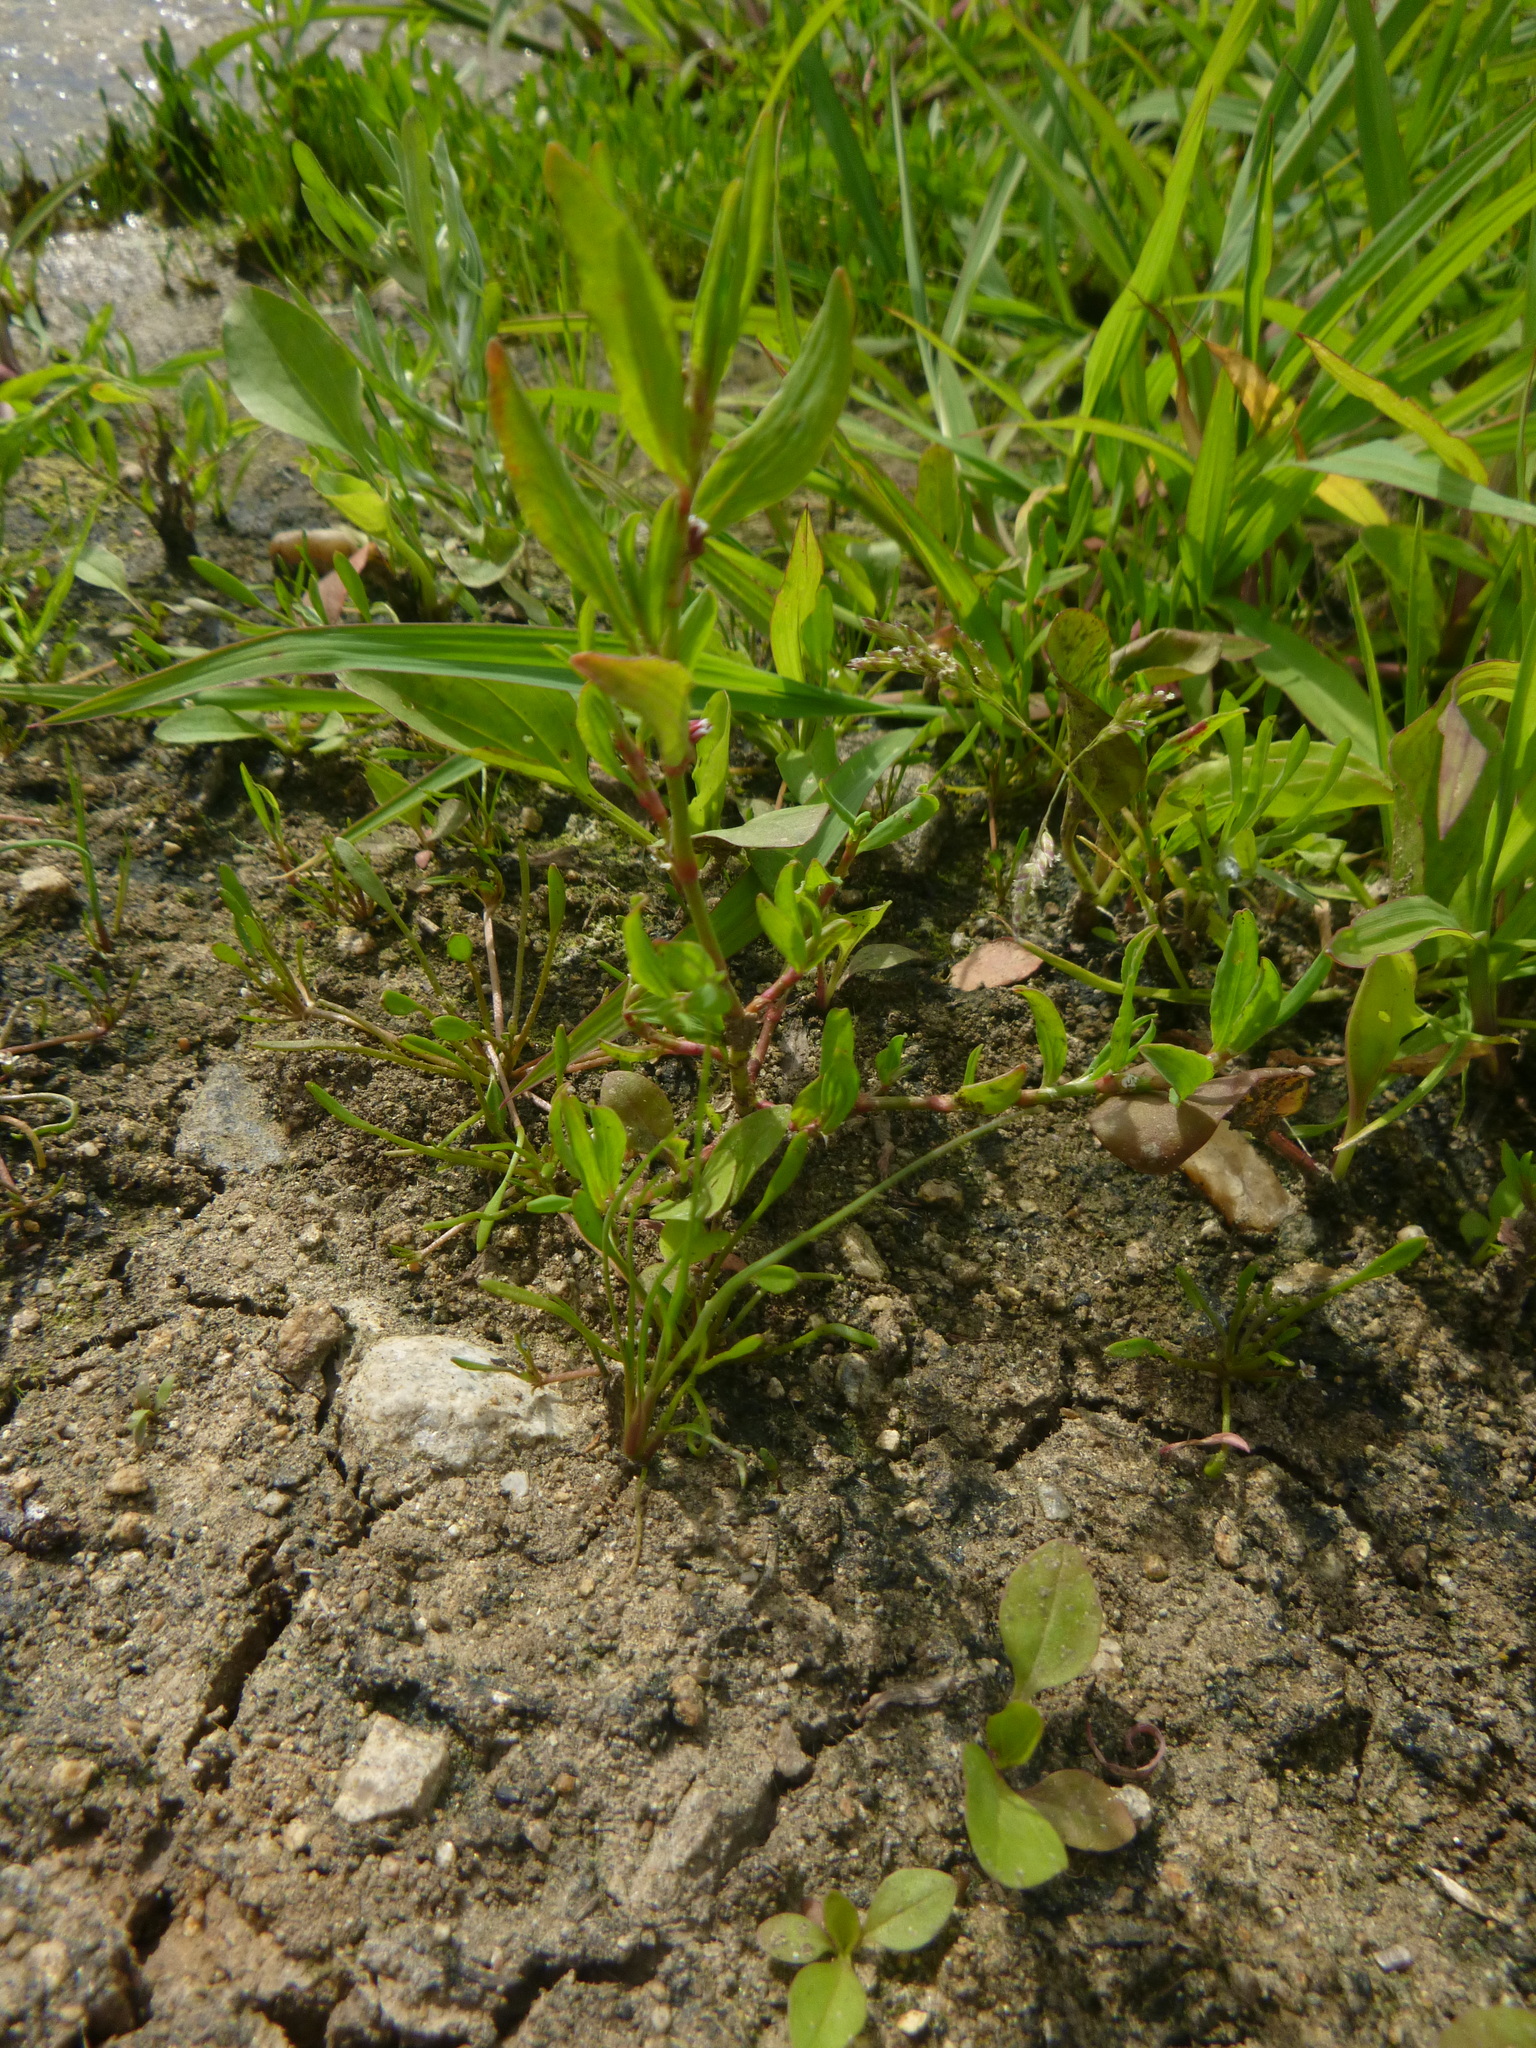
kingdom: Plantae
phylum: Tracheophyta
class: Magnoliopsida
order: Caryophyllales
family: Polygonaceae
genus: Polygonum
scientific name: Polygonum aviculare
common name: Prostrate knotweed
